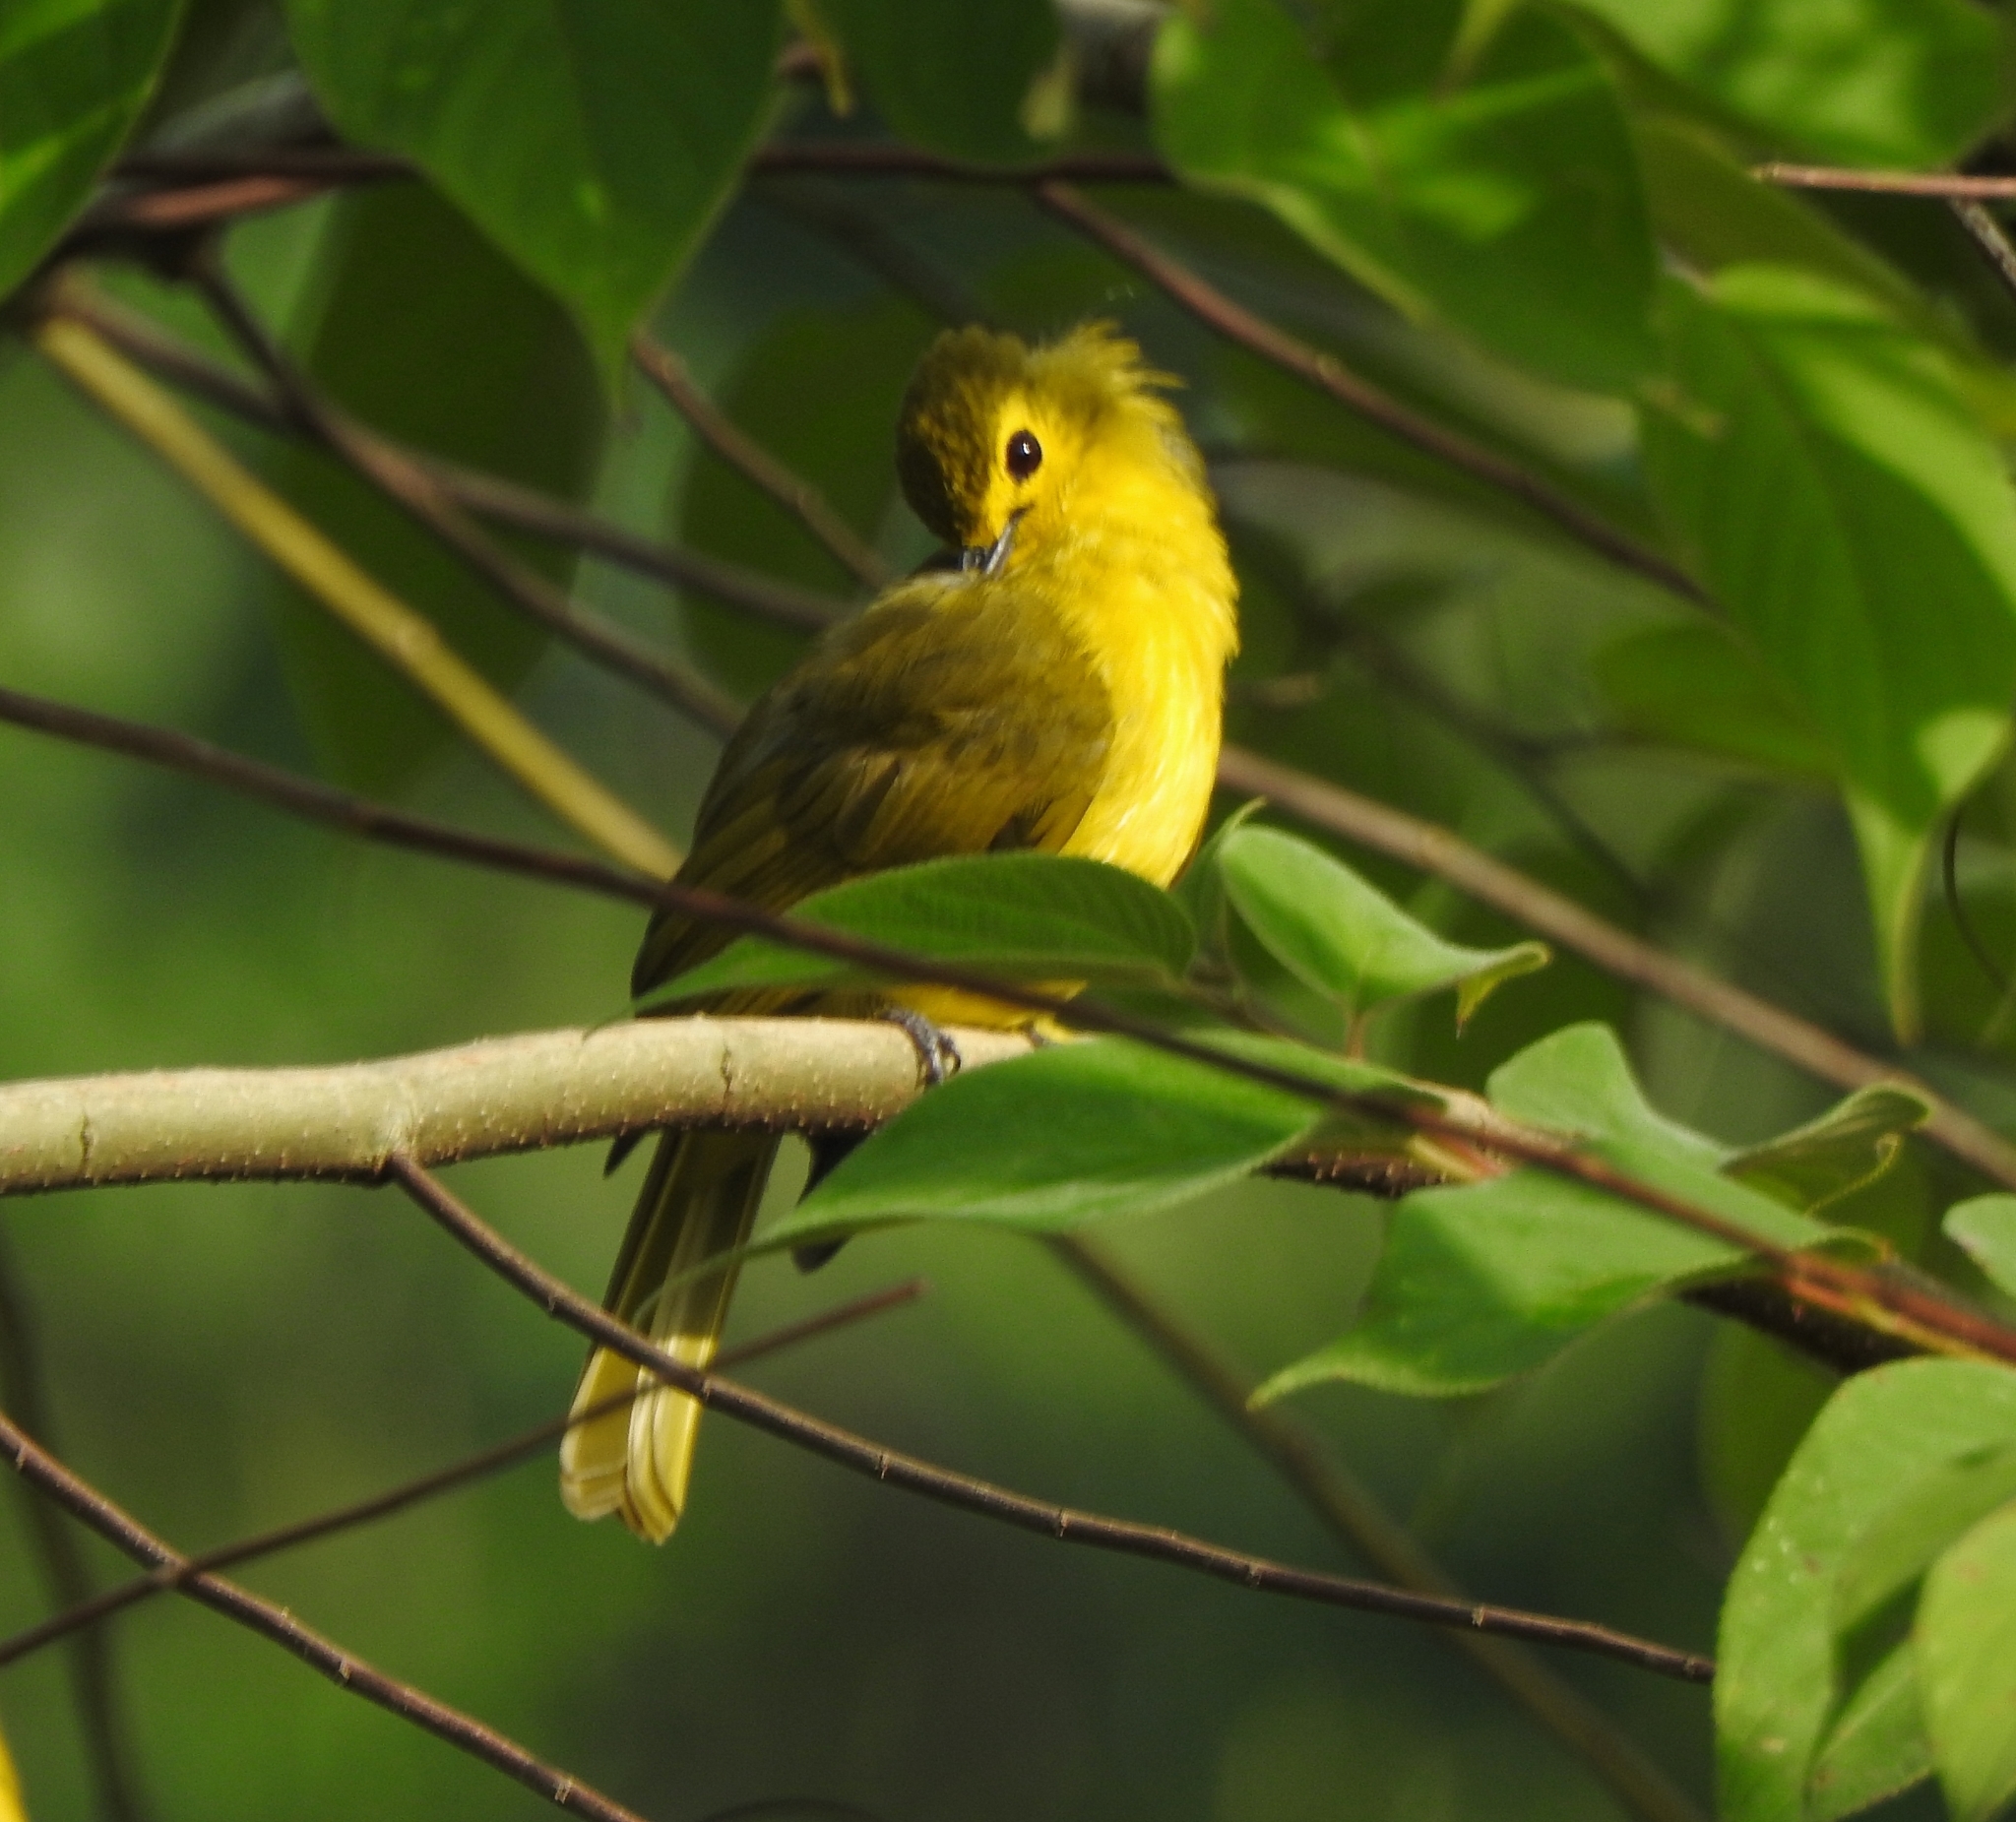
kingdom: Animalia
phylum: Chordata
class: Aves
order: Passeriformes
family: Pycnonotidae
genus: Acritillas
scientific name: Acritillas indica
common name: Yellow-browed bulbul
